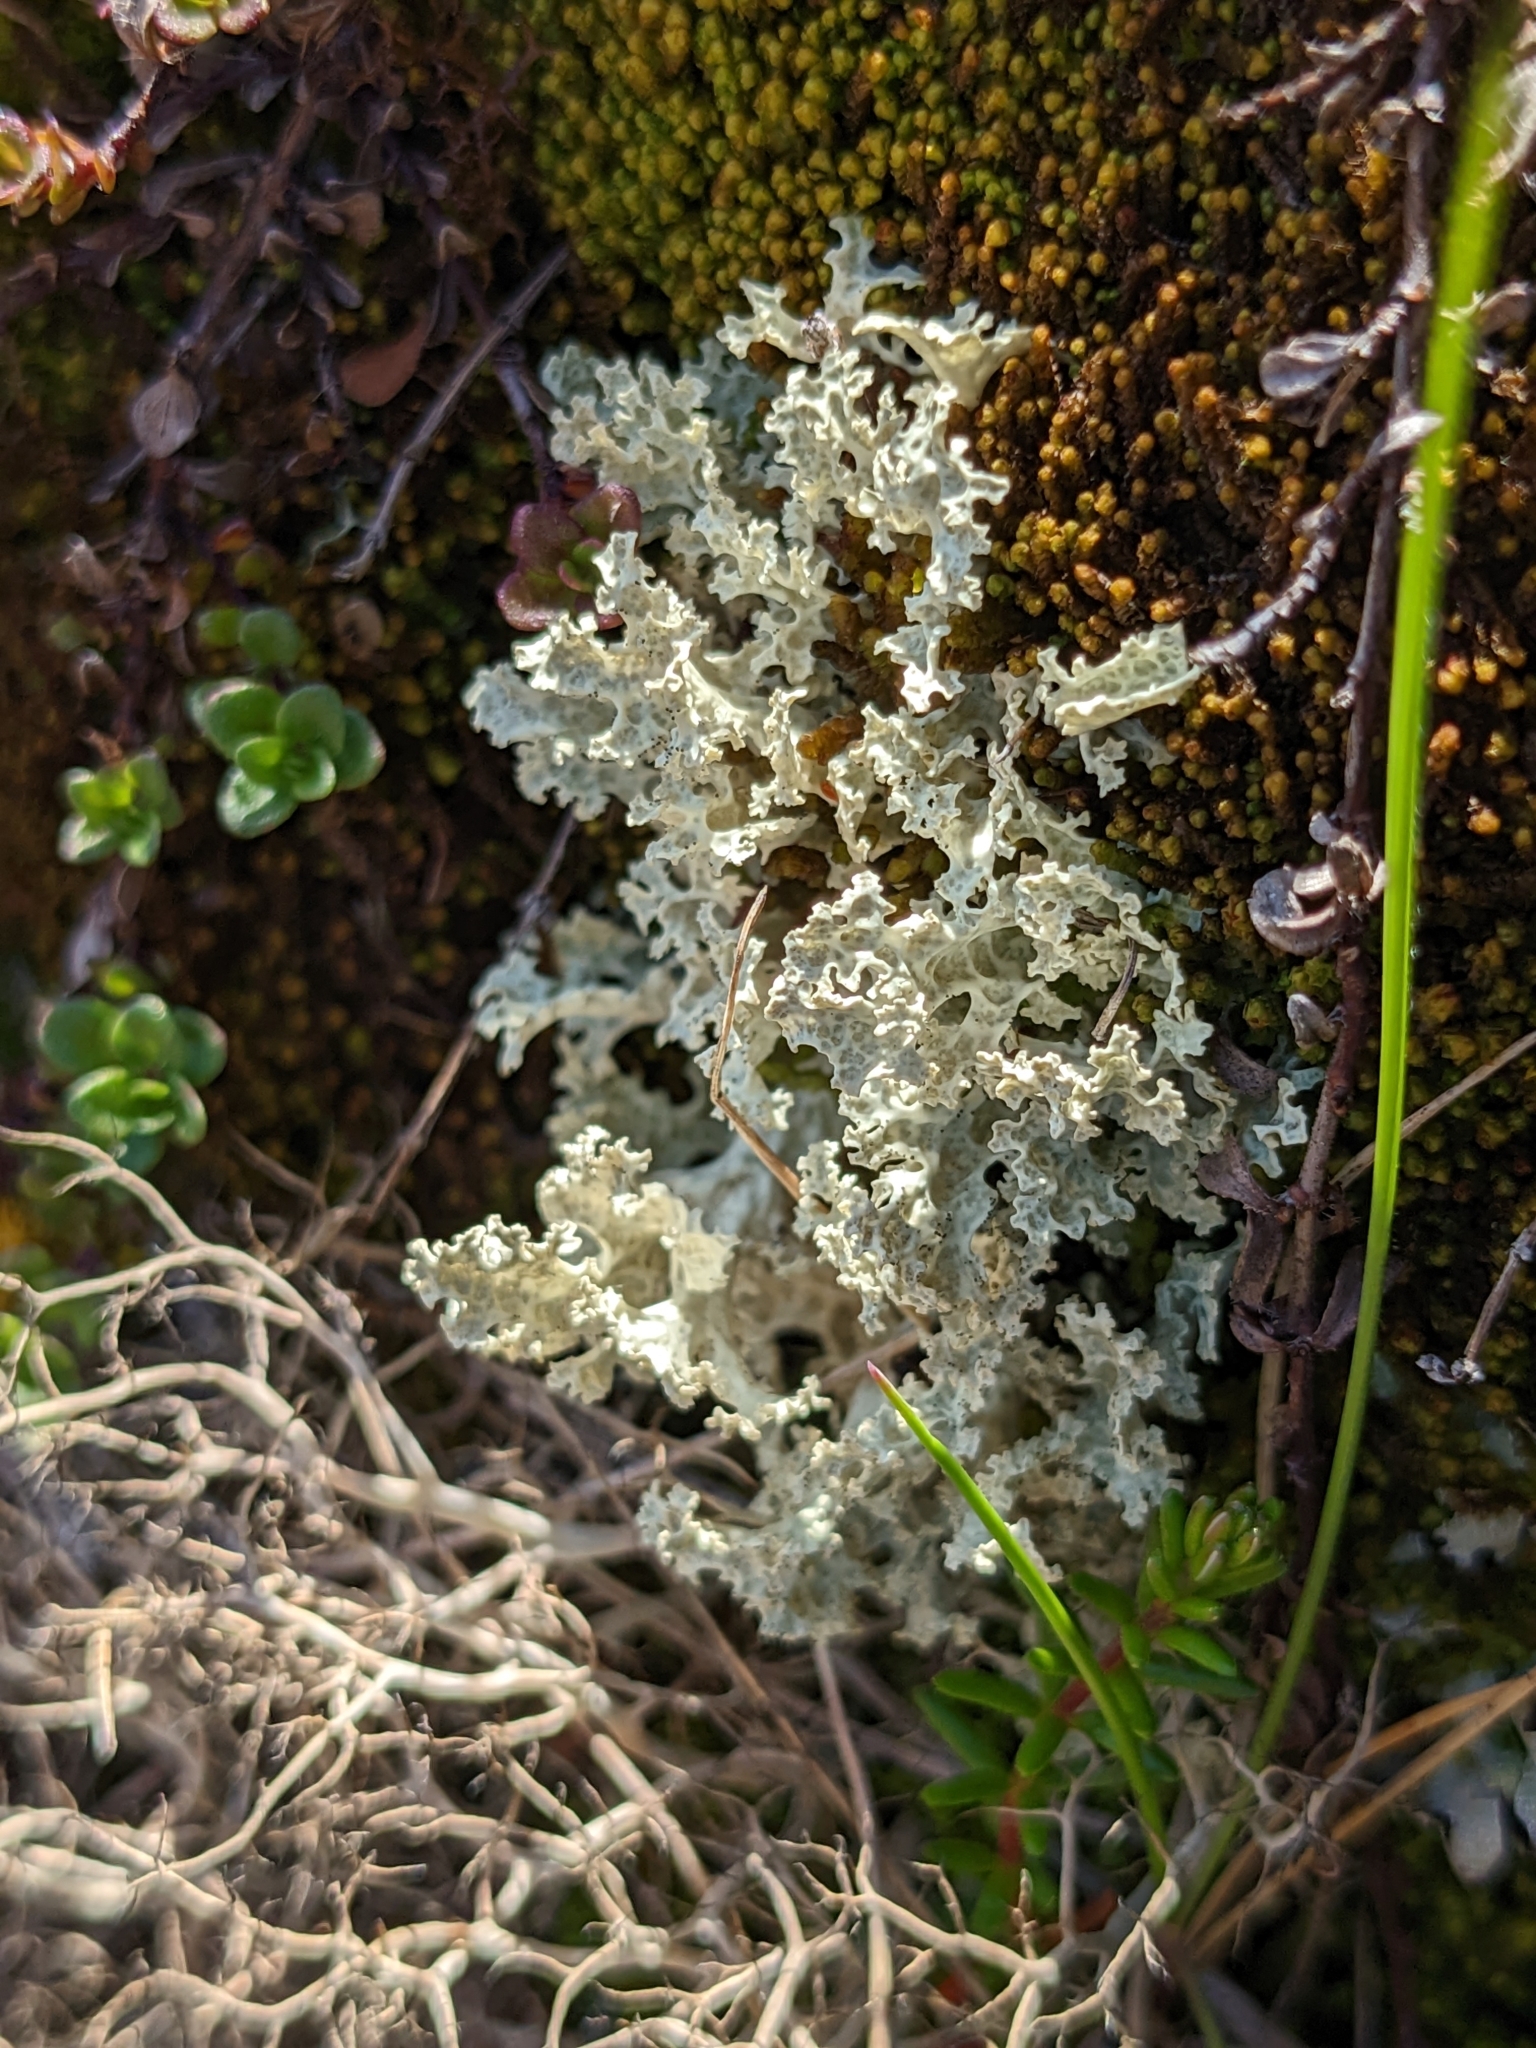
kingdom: Fungi
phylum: Ascomycota
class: Lecanoromycetes
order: Lecanorales
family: Parmeliaceae
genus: Nephromopsis
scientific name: Nephromopsis nivalis
